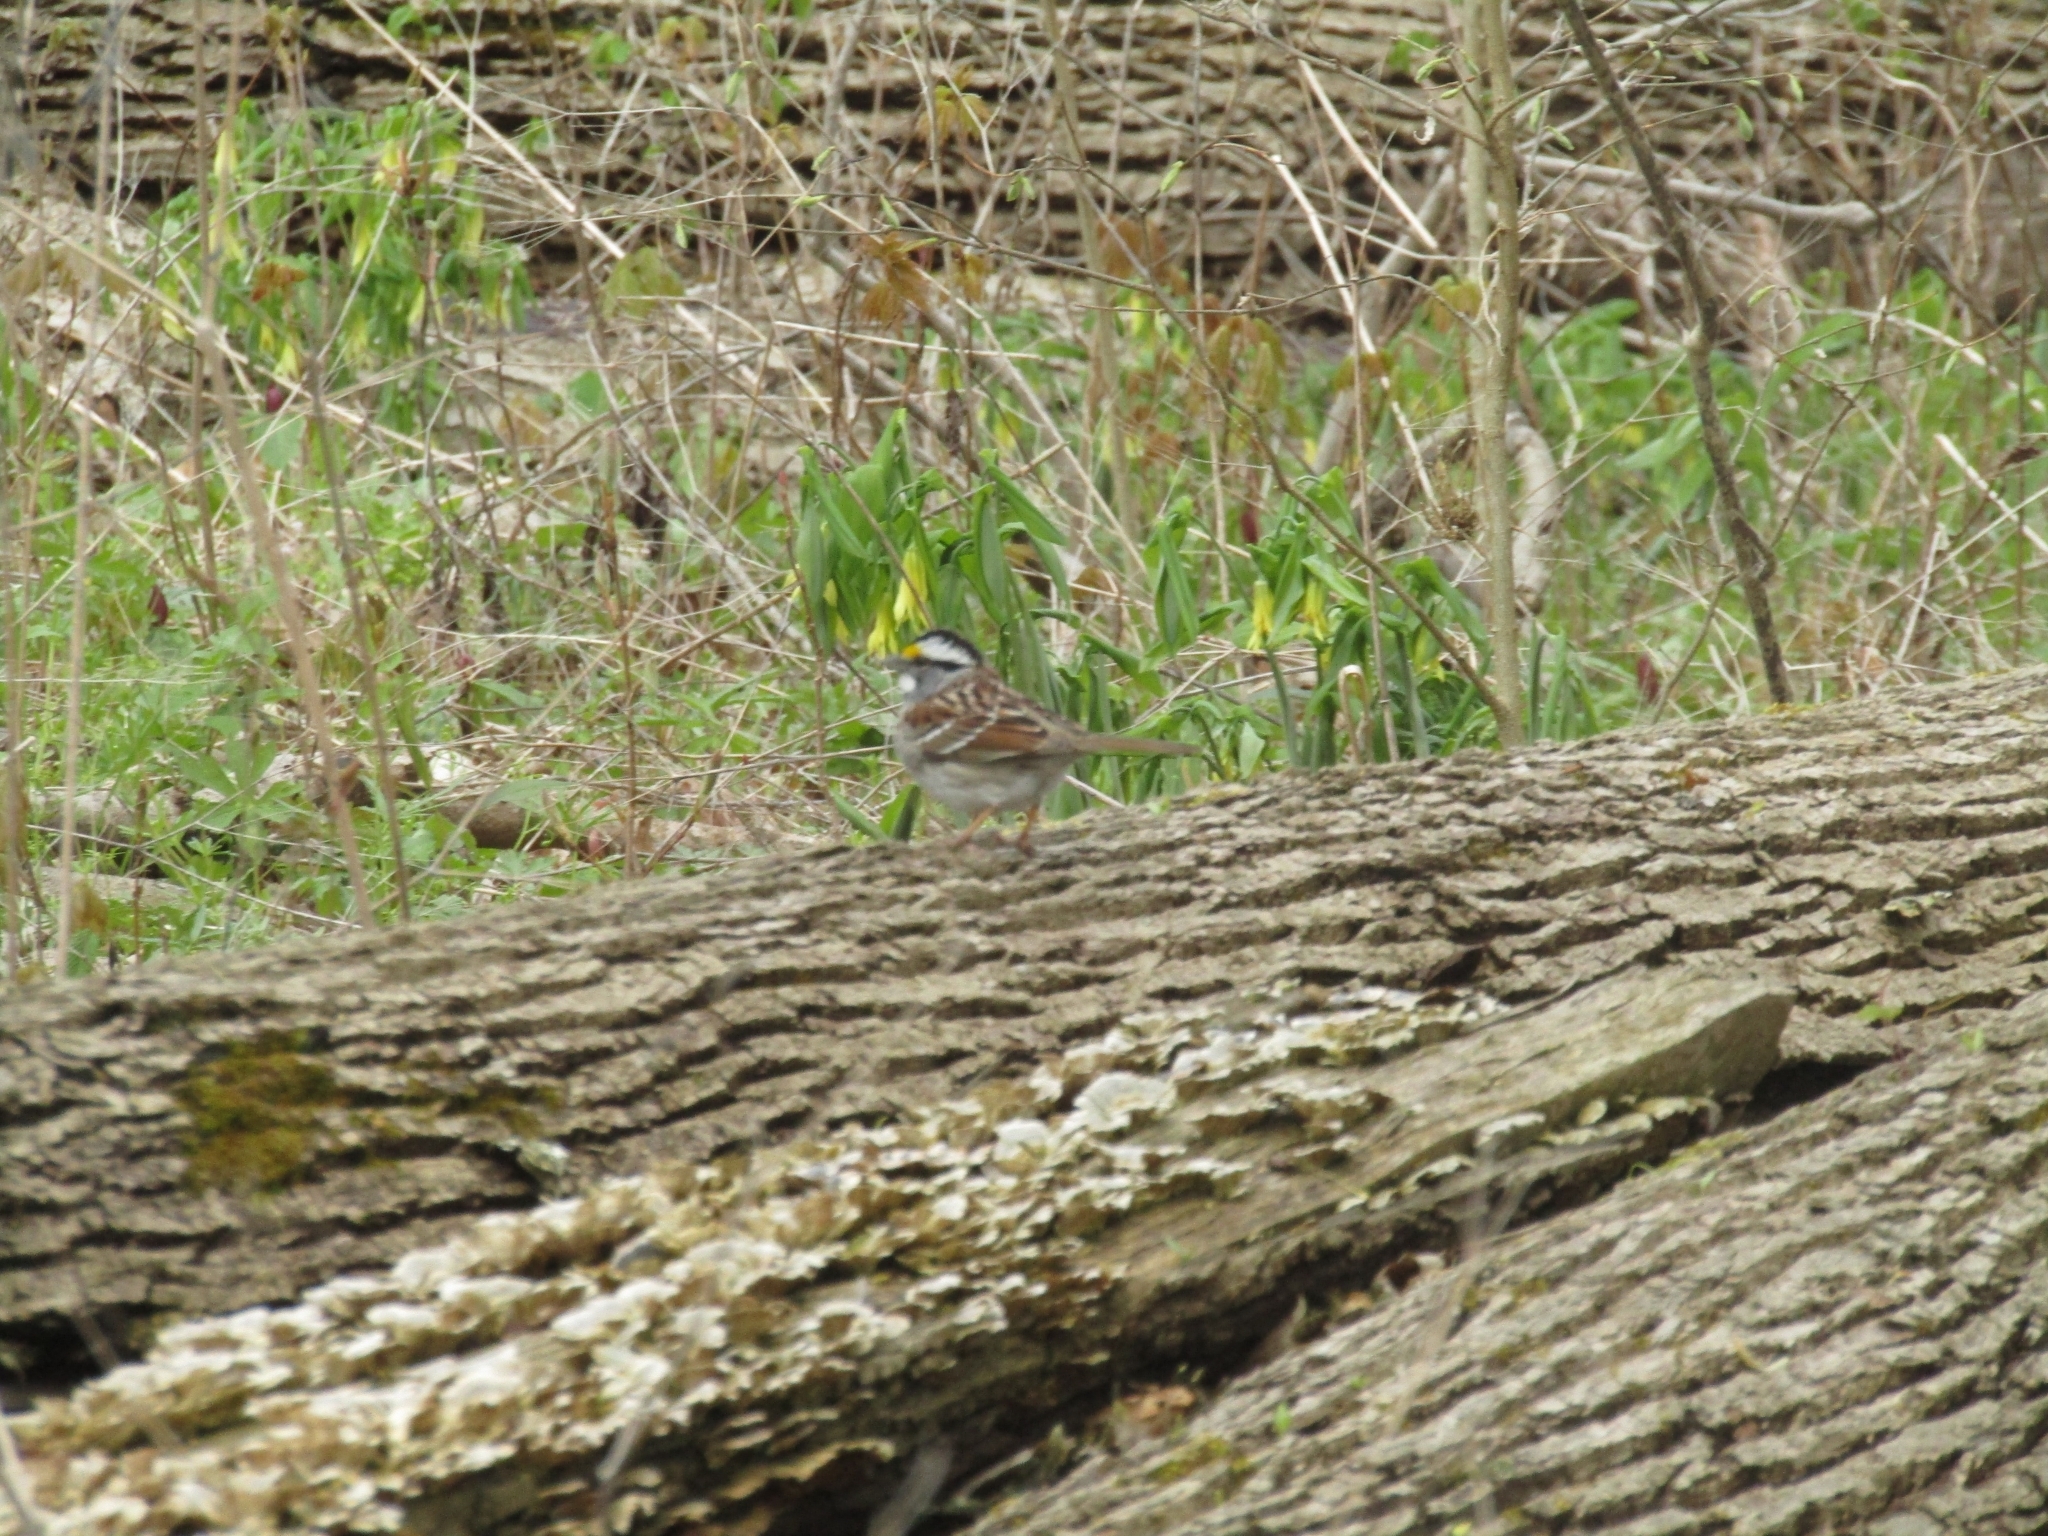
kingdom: Animalia
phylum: Chordata
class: Aves
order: Passeriformes
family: Passerellidae
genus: Zonotrichia
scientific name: Zonotrichia albicollis
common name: White-throated sparrow
